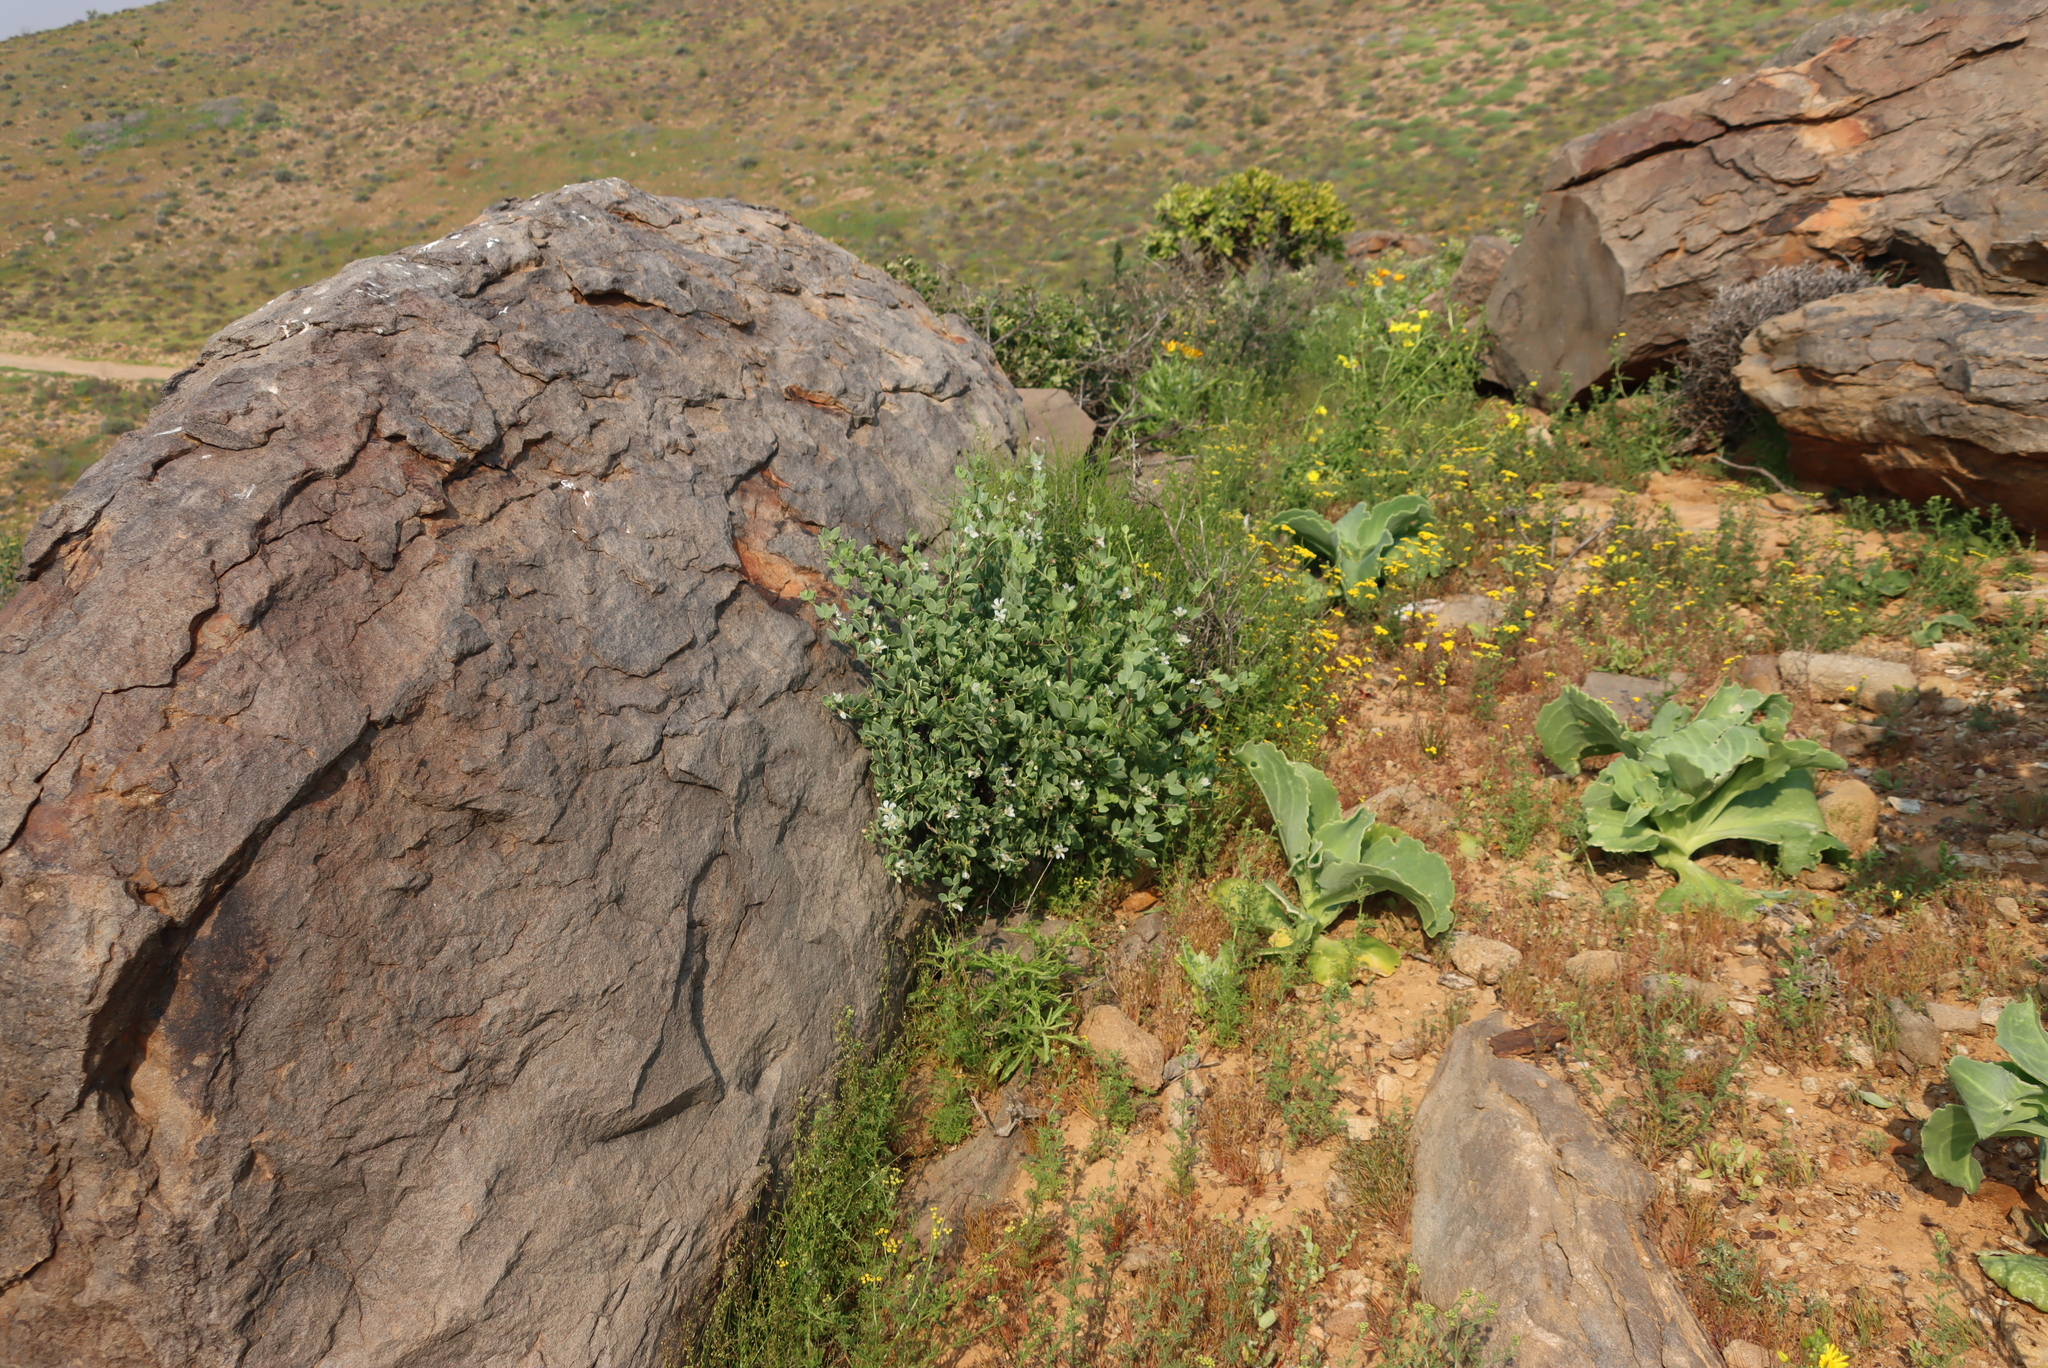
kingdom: Plantae
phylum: Tracheophyta
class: Magnoliopsida
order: Zygophyllales
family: Zygophyllaceae
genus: Roepera
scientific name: Roepera leptopetala
